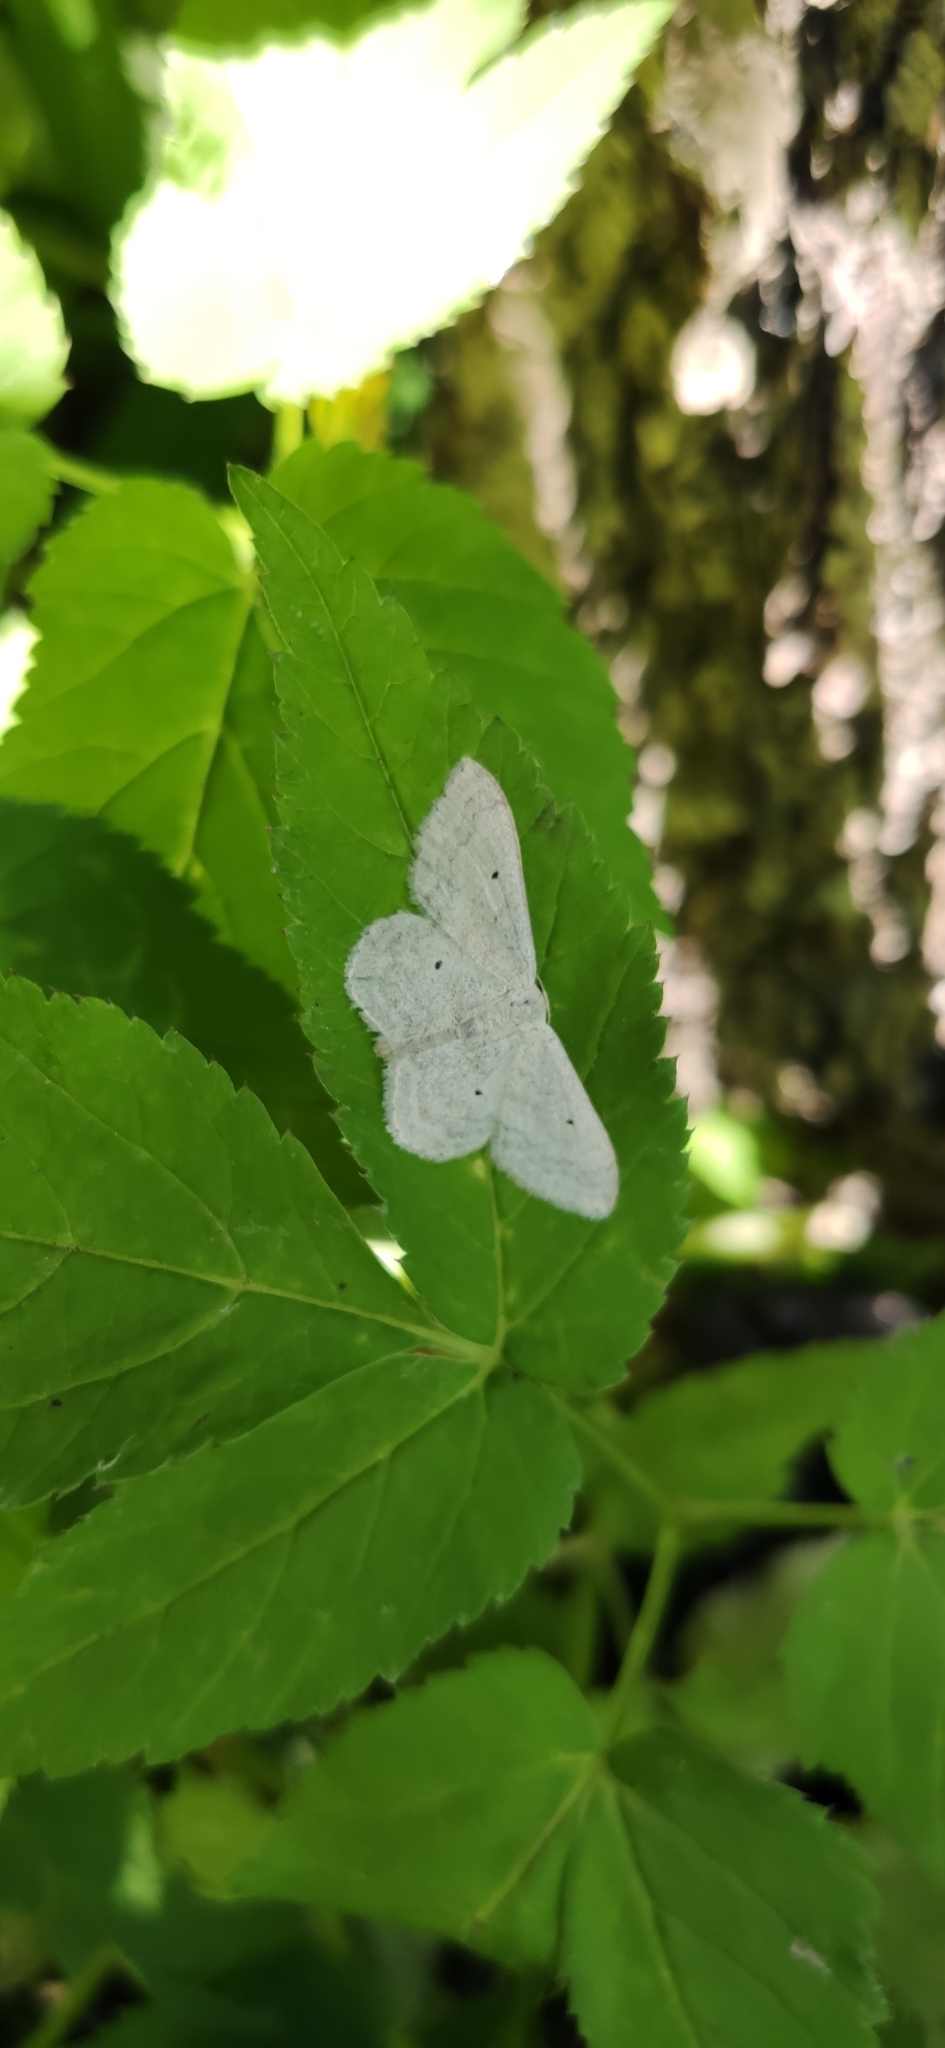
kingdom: Animalia
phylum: Arthropoda
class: Insecta
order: Lepidoptera
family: Geometridae
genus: Scopula
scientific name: Scopula incanata
